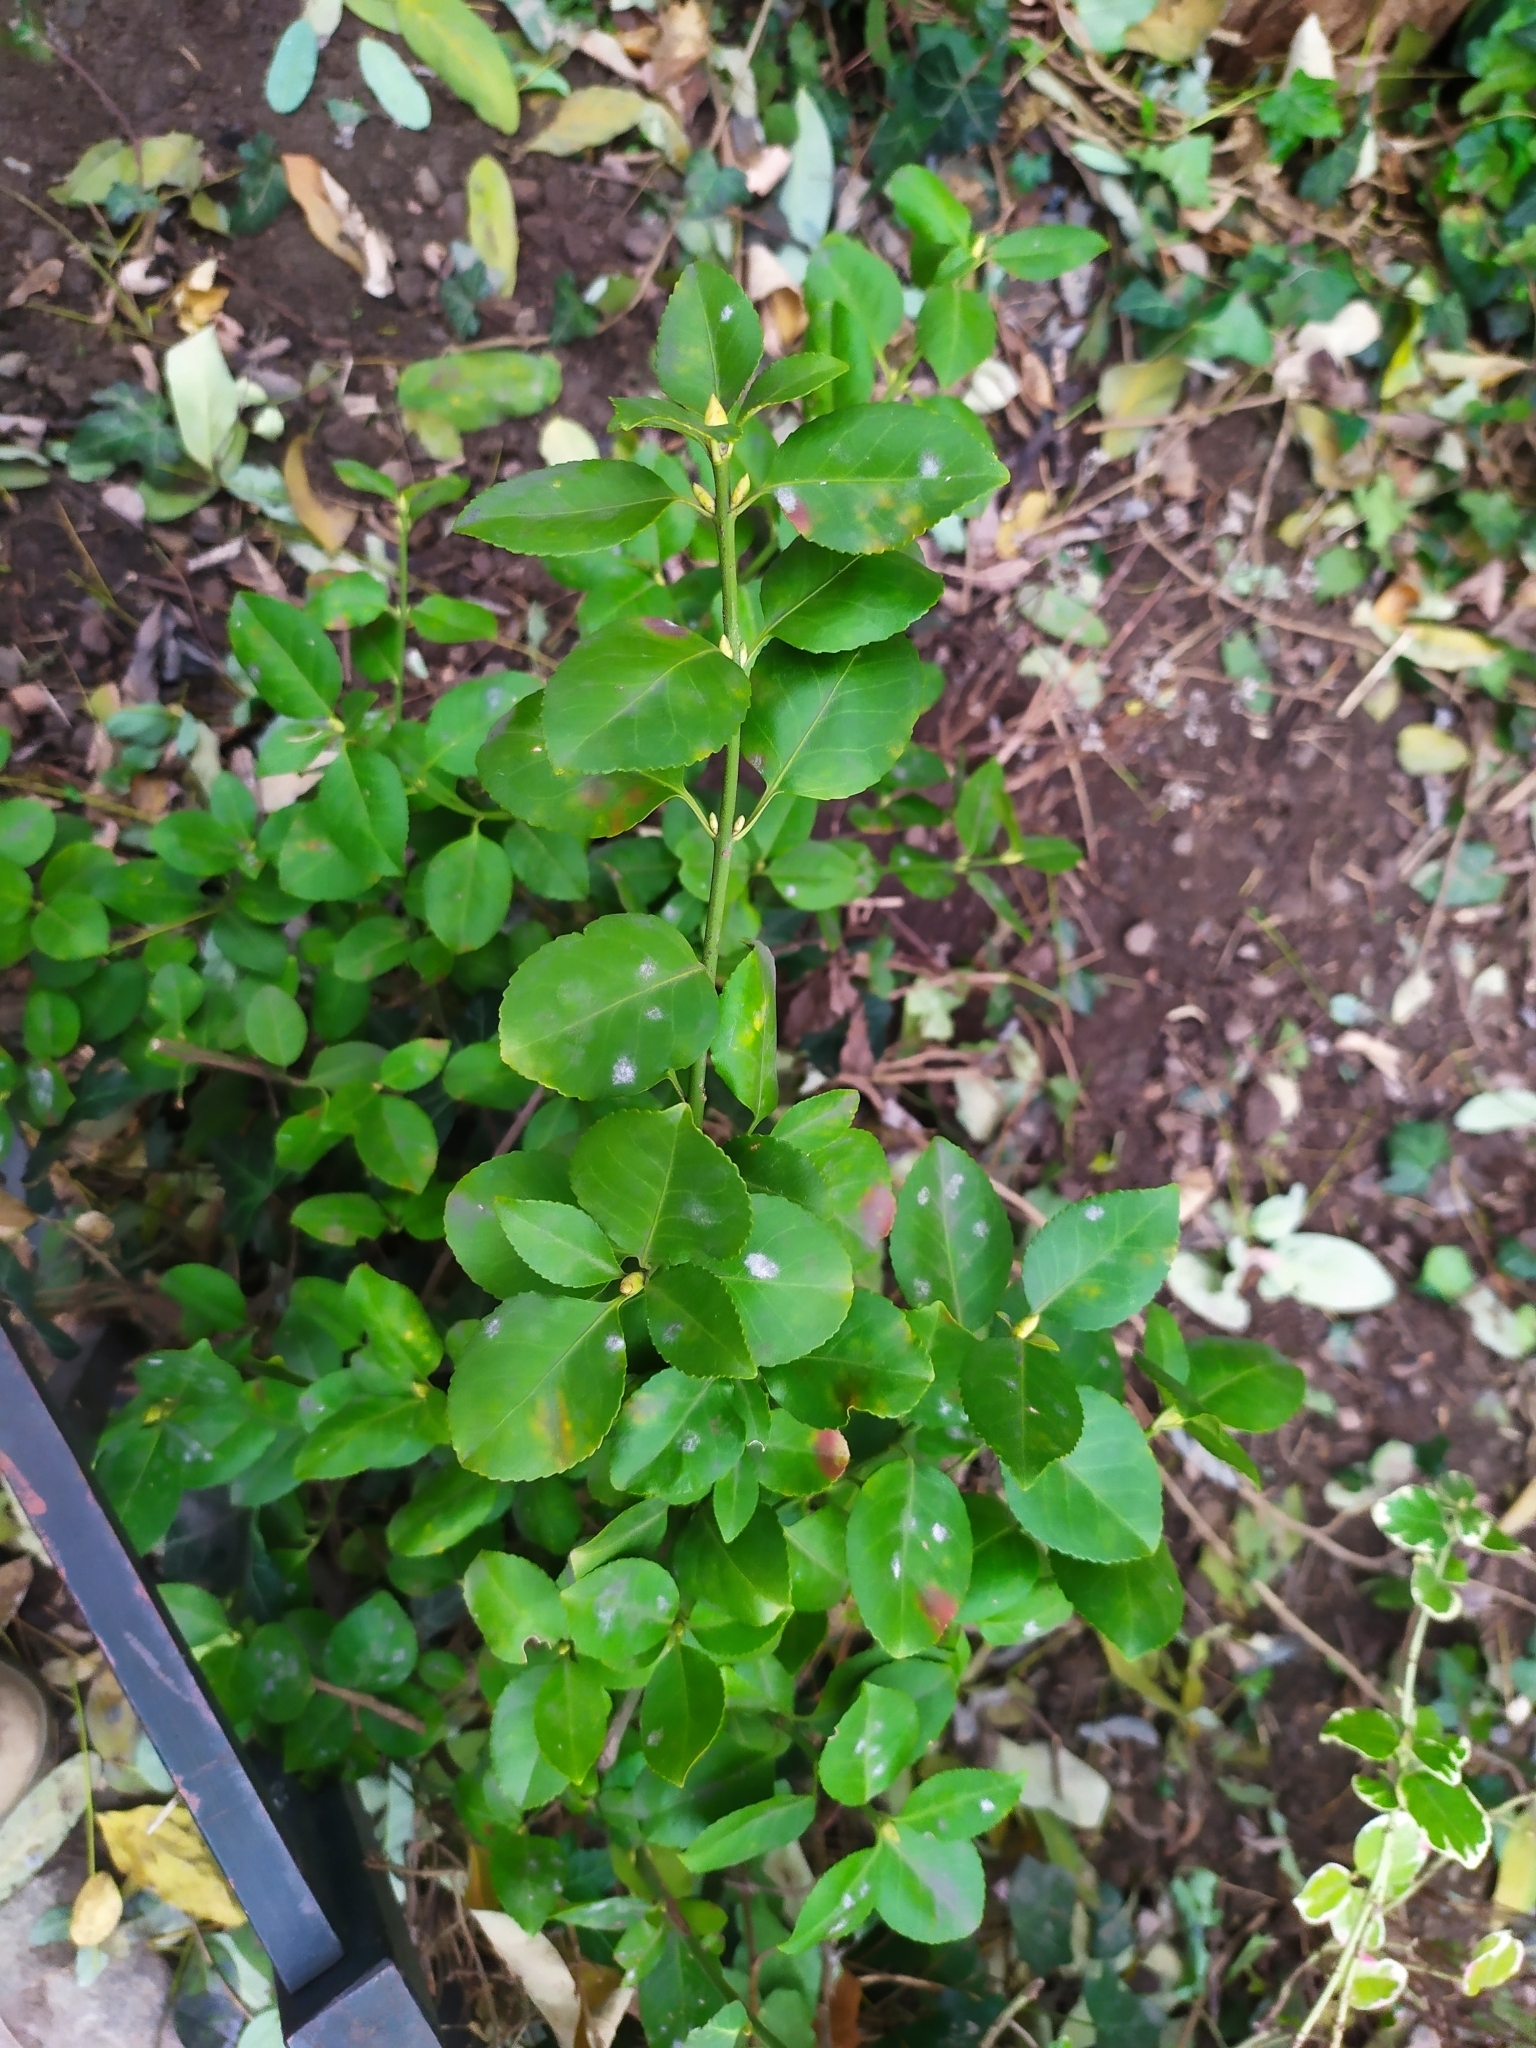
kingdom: Fungi
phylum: Ascomycota
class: Leotiomycetes
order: Helotiales
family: Erysiphaceae
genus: Erysiphe
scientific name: Erysiphe euonymicola
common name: Spindletree mildew
